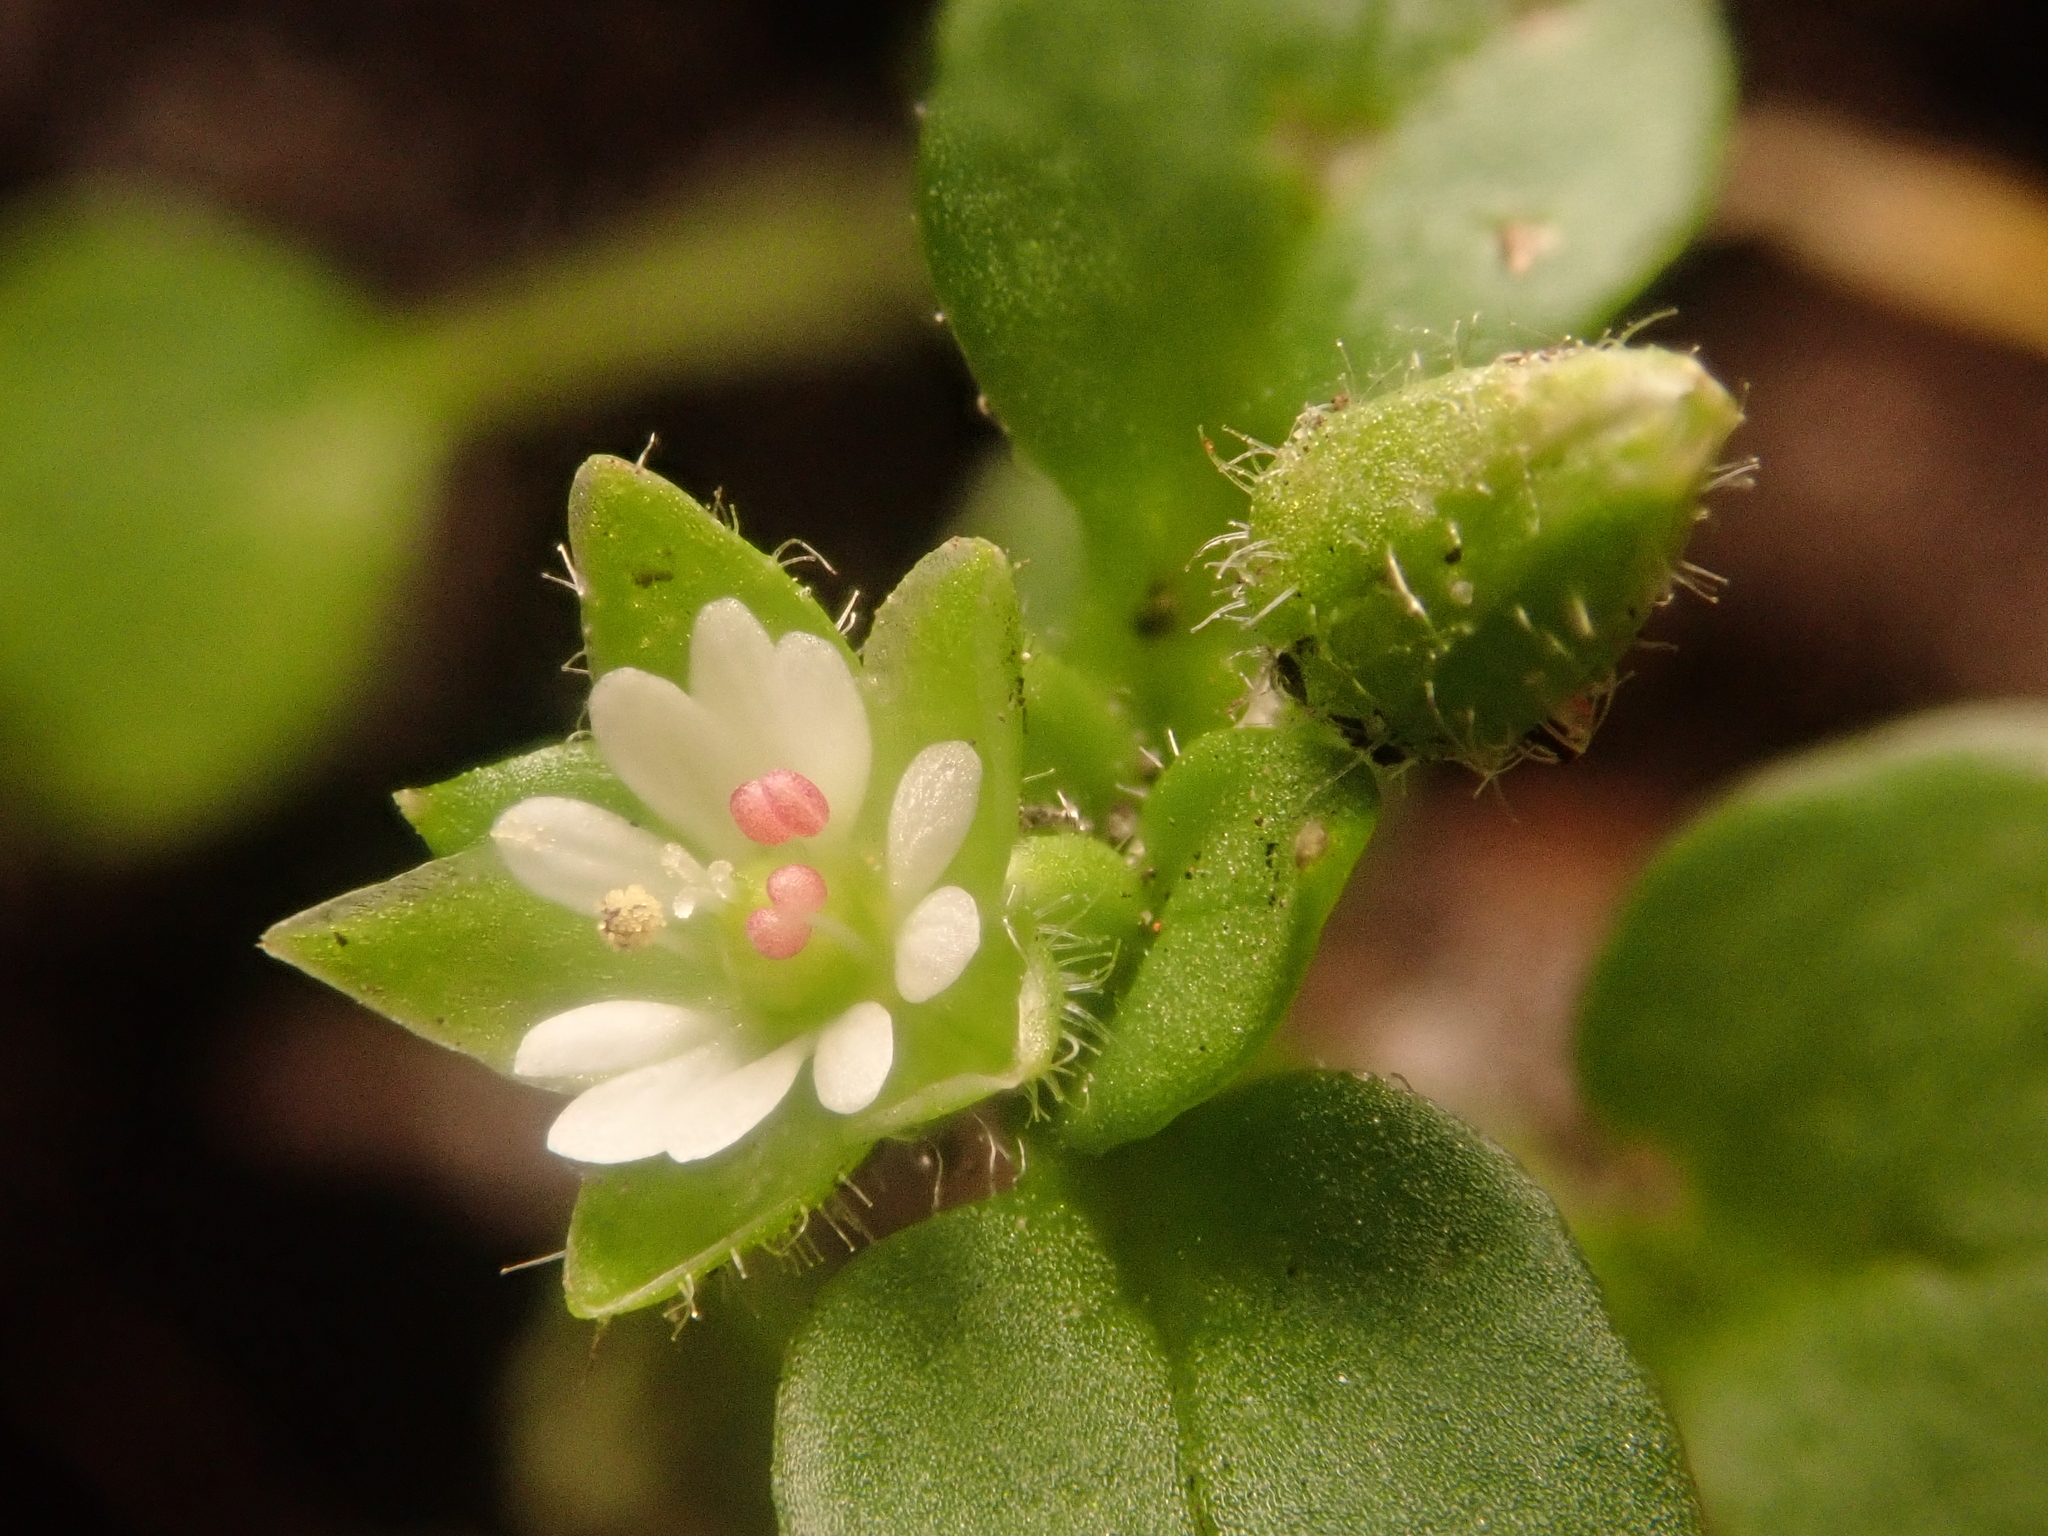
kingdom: Plantae
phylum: Tracheophyta
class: Magnoliopsida
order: Caryophyllales
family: Caryophyllaceae
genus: Stellaria
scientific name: Stellaria media
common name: Common chickweed
